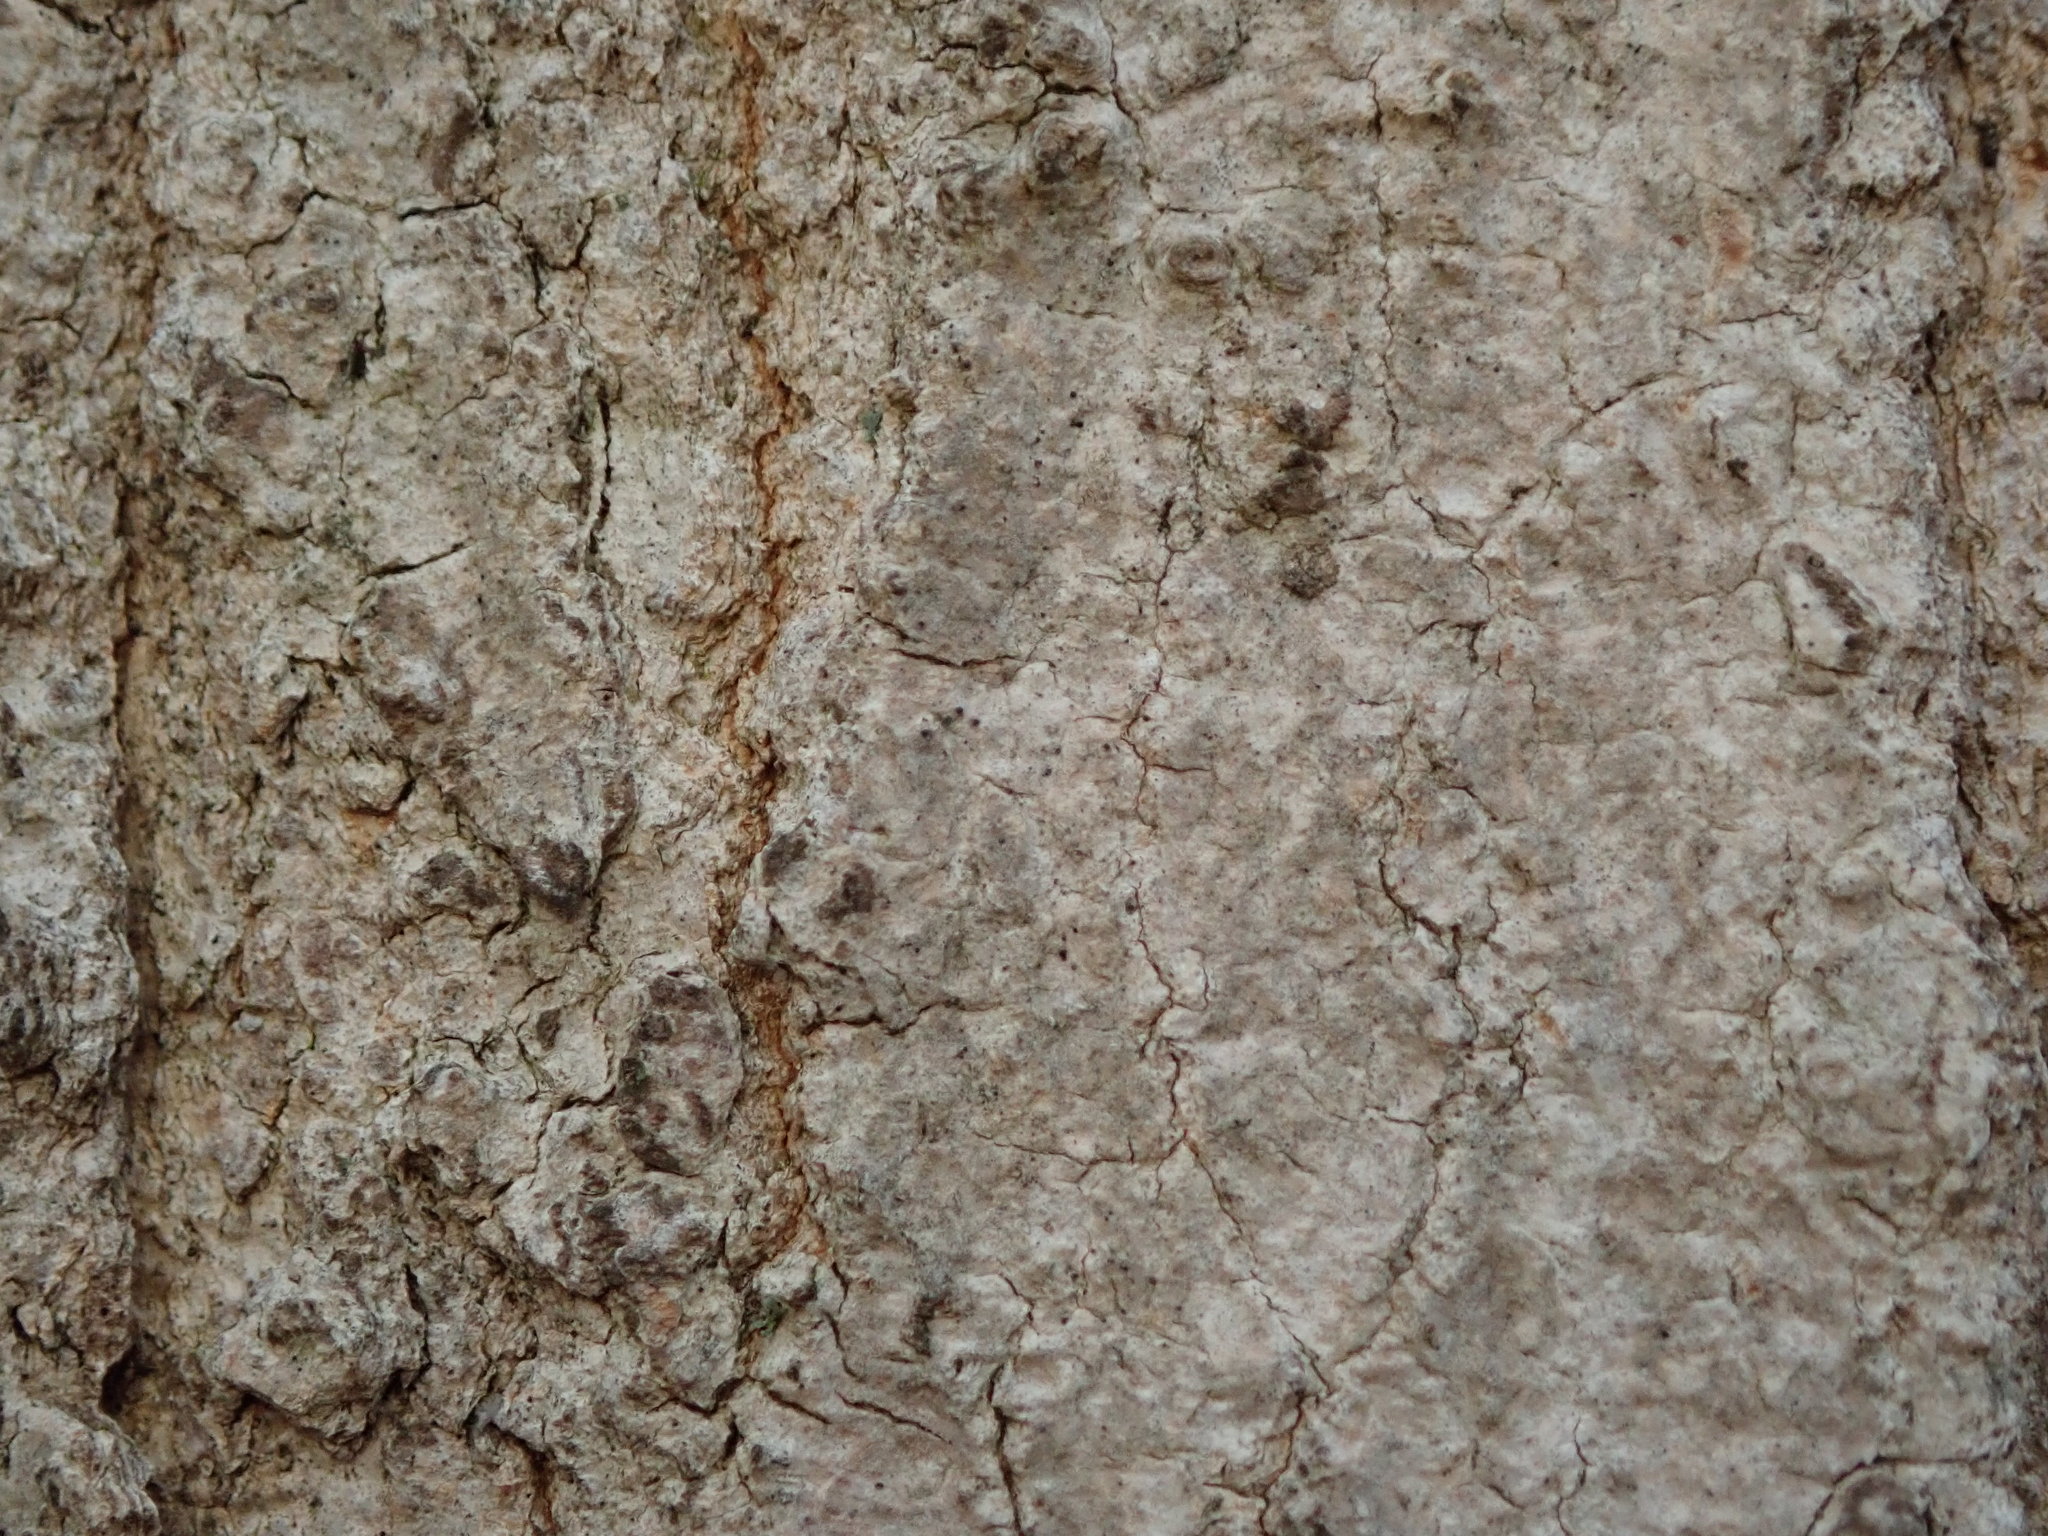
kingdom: Fungi
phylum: Ascomycota
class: Dothideomycetes
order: Trypetheliales
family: Trypetheliaceae
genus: Arthopyrenia
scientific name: Arthopyrenia fallaciosa
